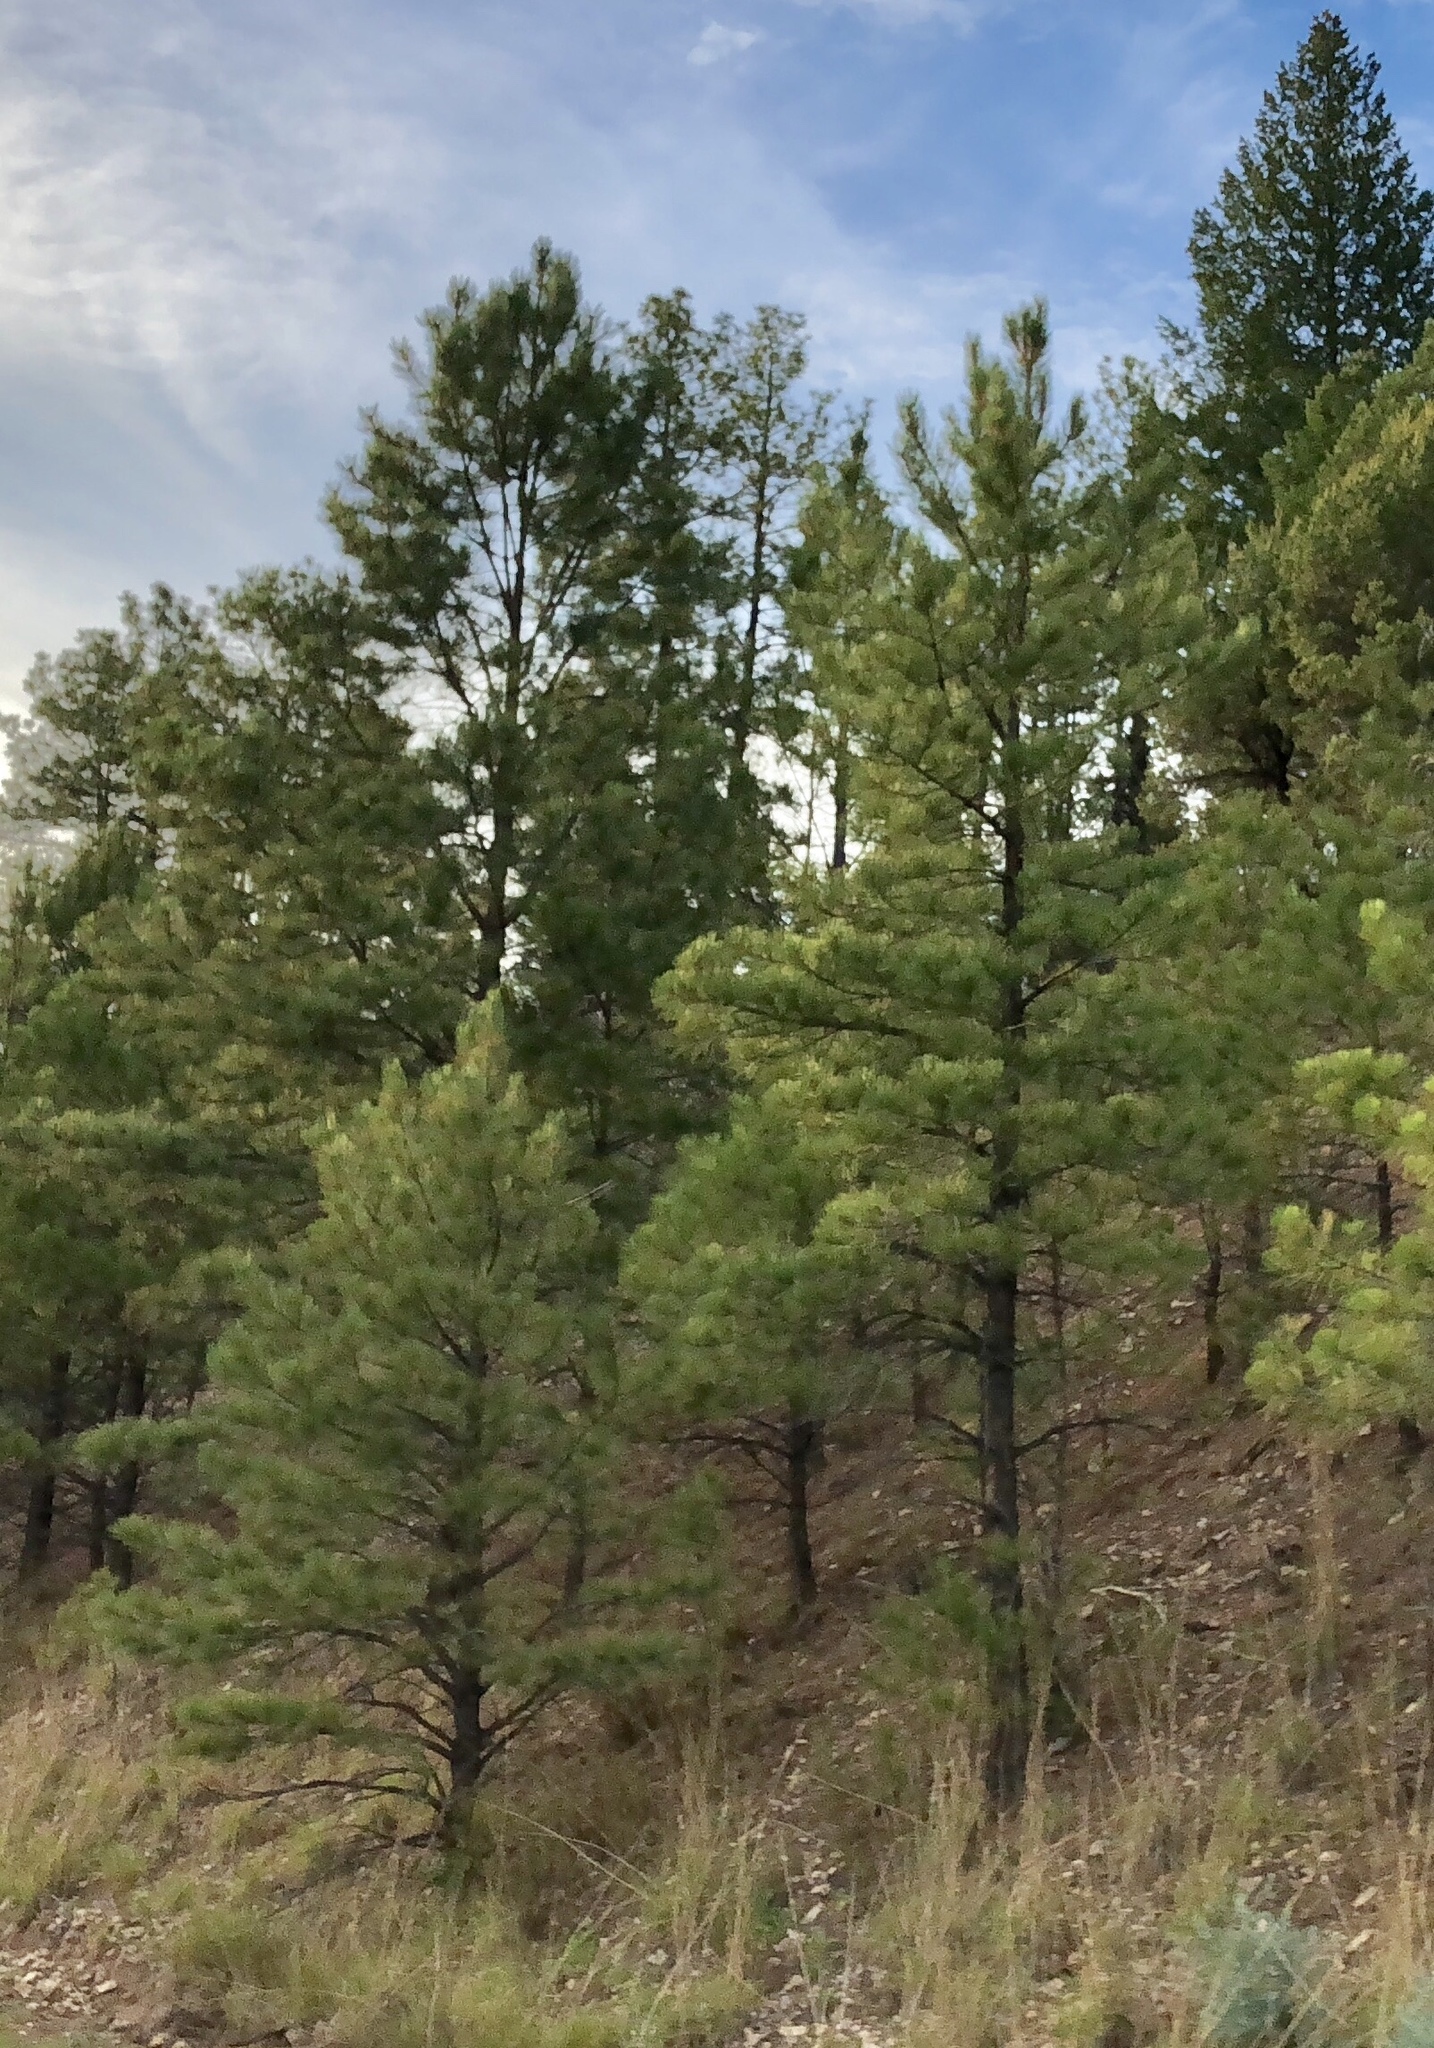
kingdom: Plantae
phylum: Tracheophyta
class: Pinopsida
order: Pinales
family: Pinaceae
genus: Pinus
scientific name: Pinus ponderosa
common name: Western yellow-pine
